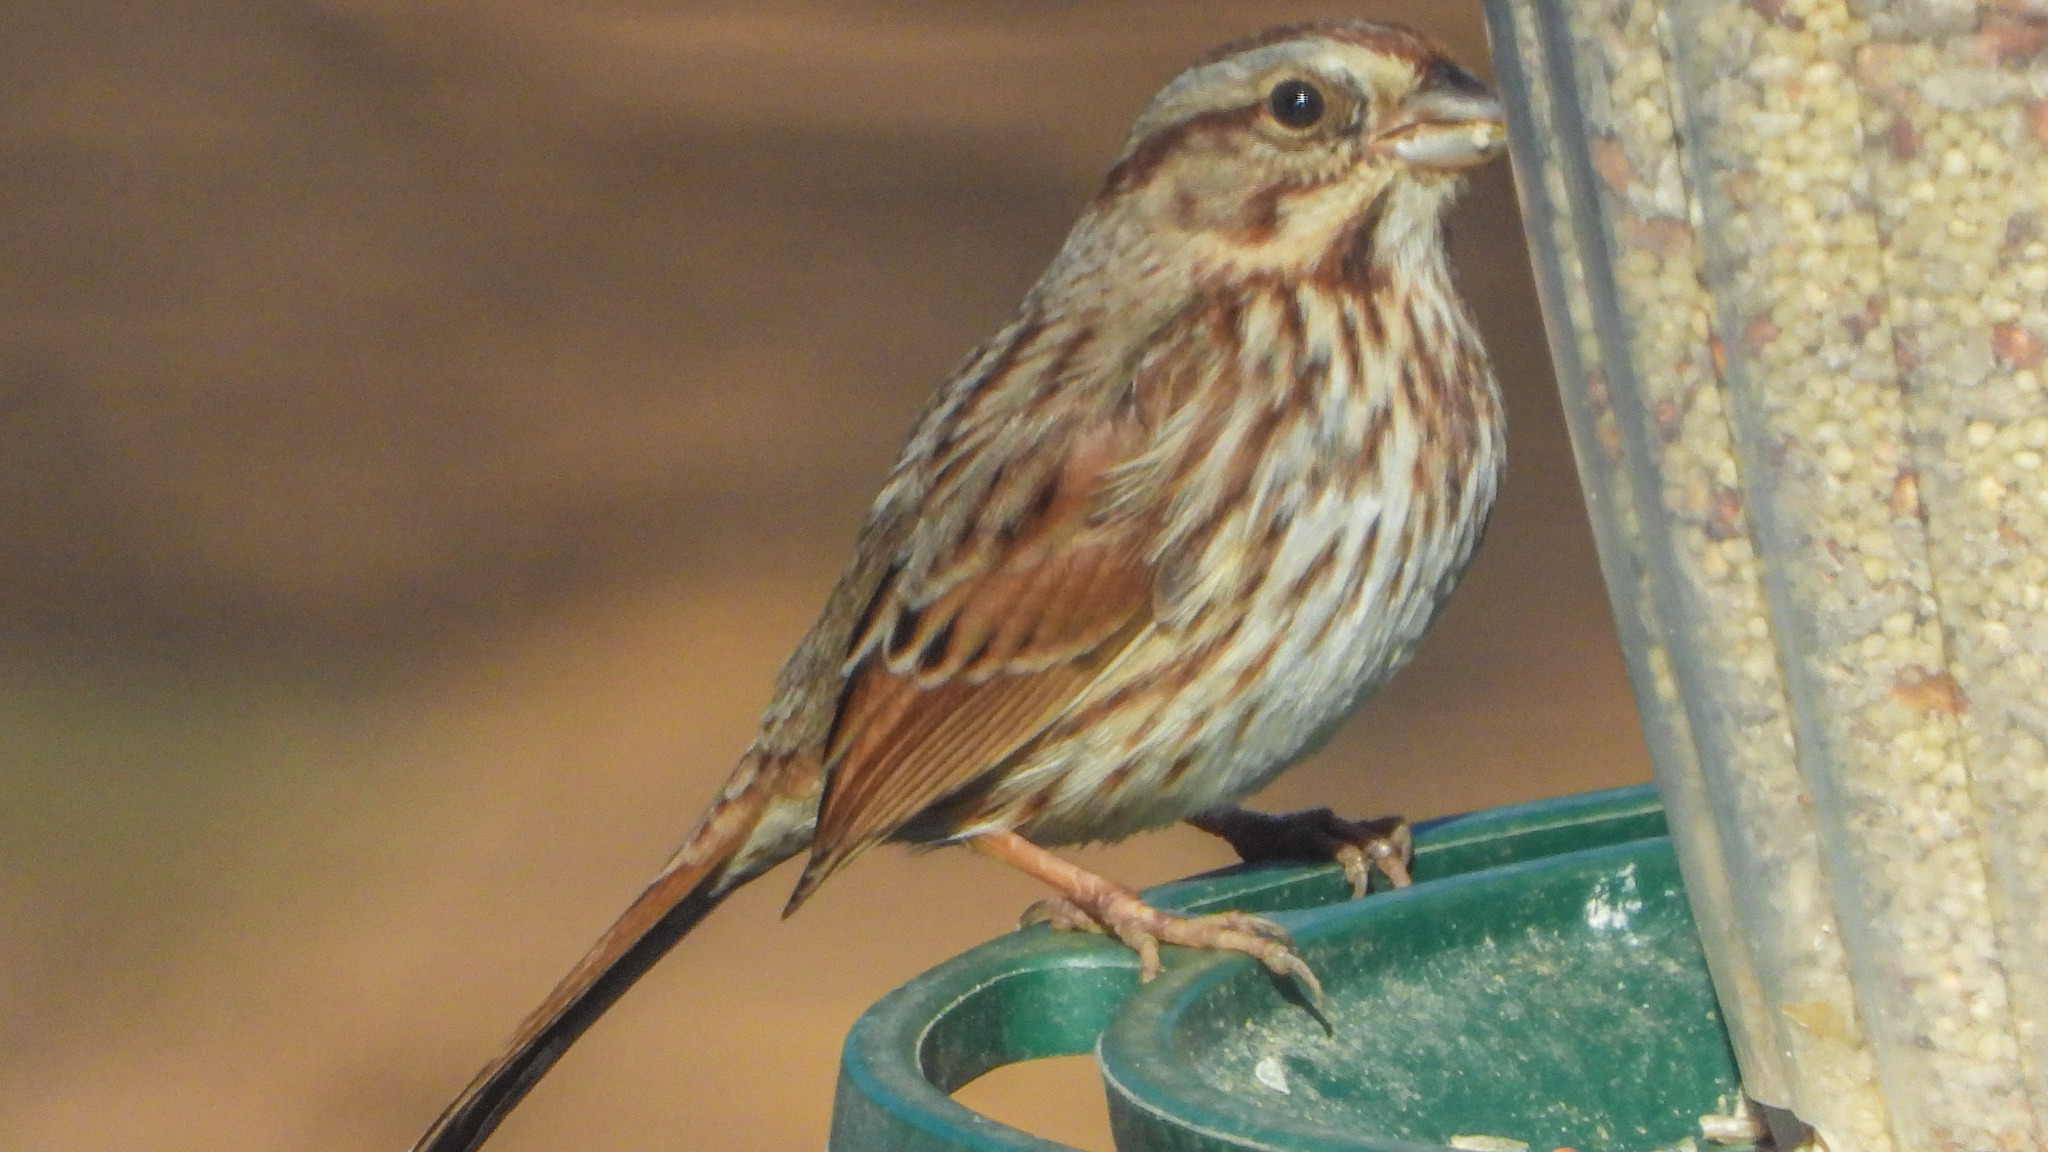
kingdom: Animalia
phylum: Chordata
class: Aves
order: Passeriformes
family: Passerellidae
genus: Melospiza
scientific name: Melospiza melodia
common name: Song sparrow
